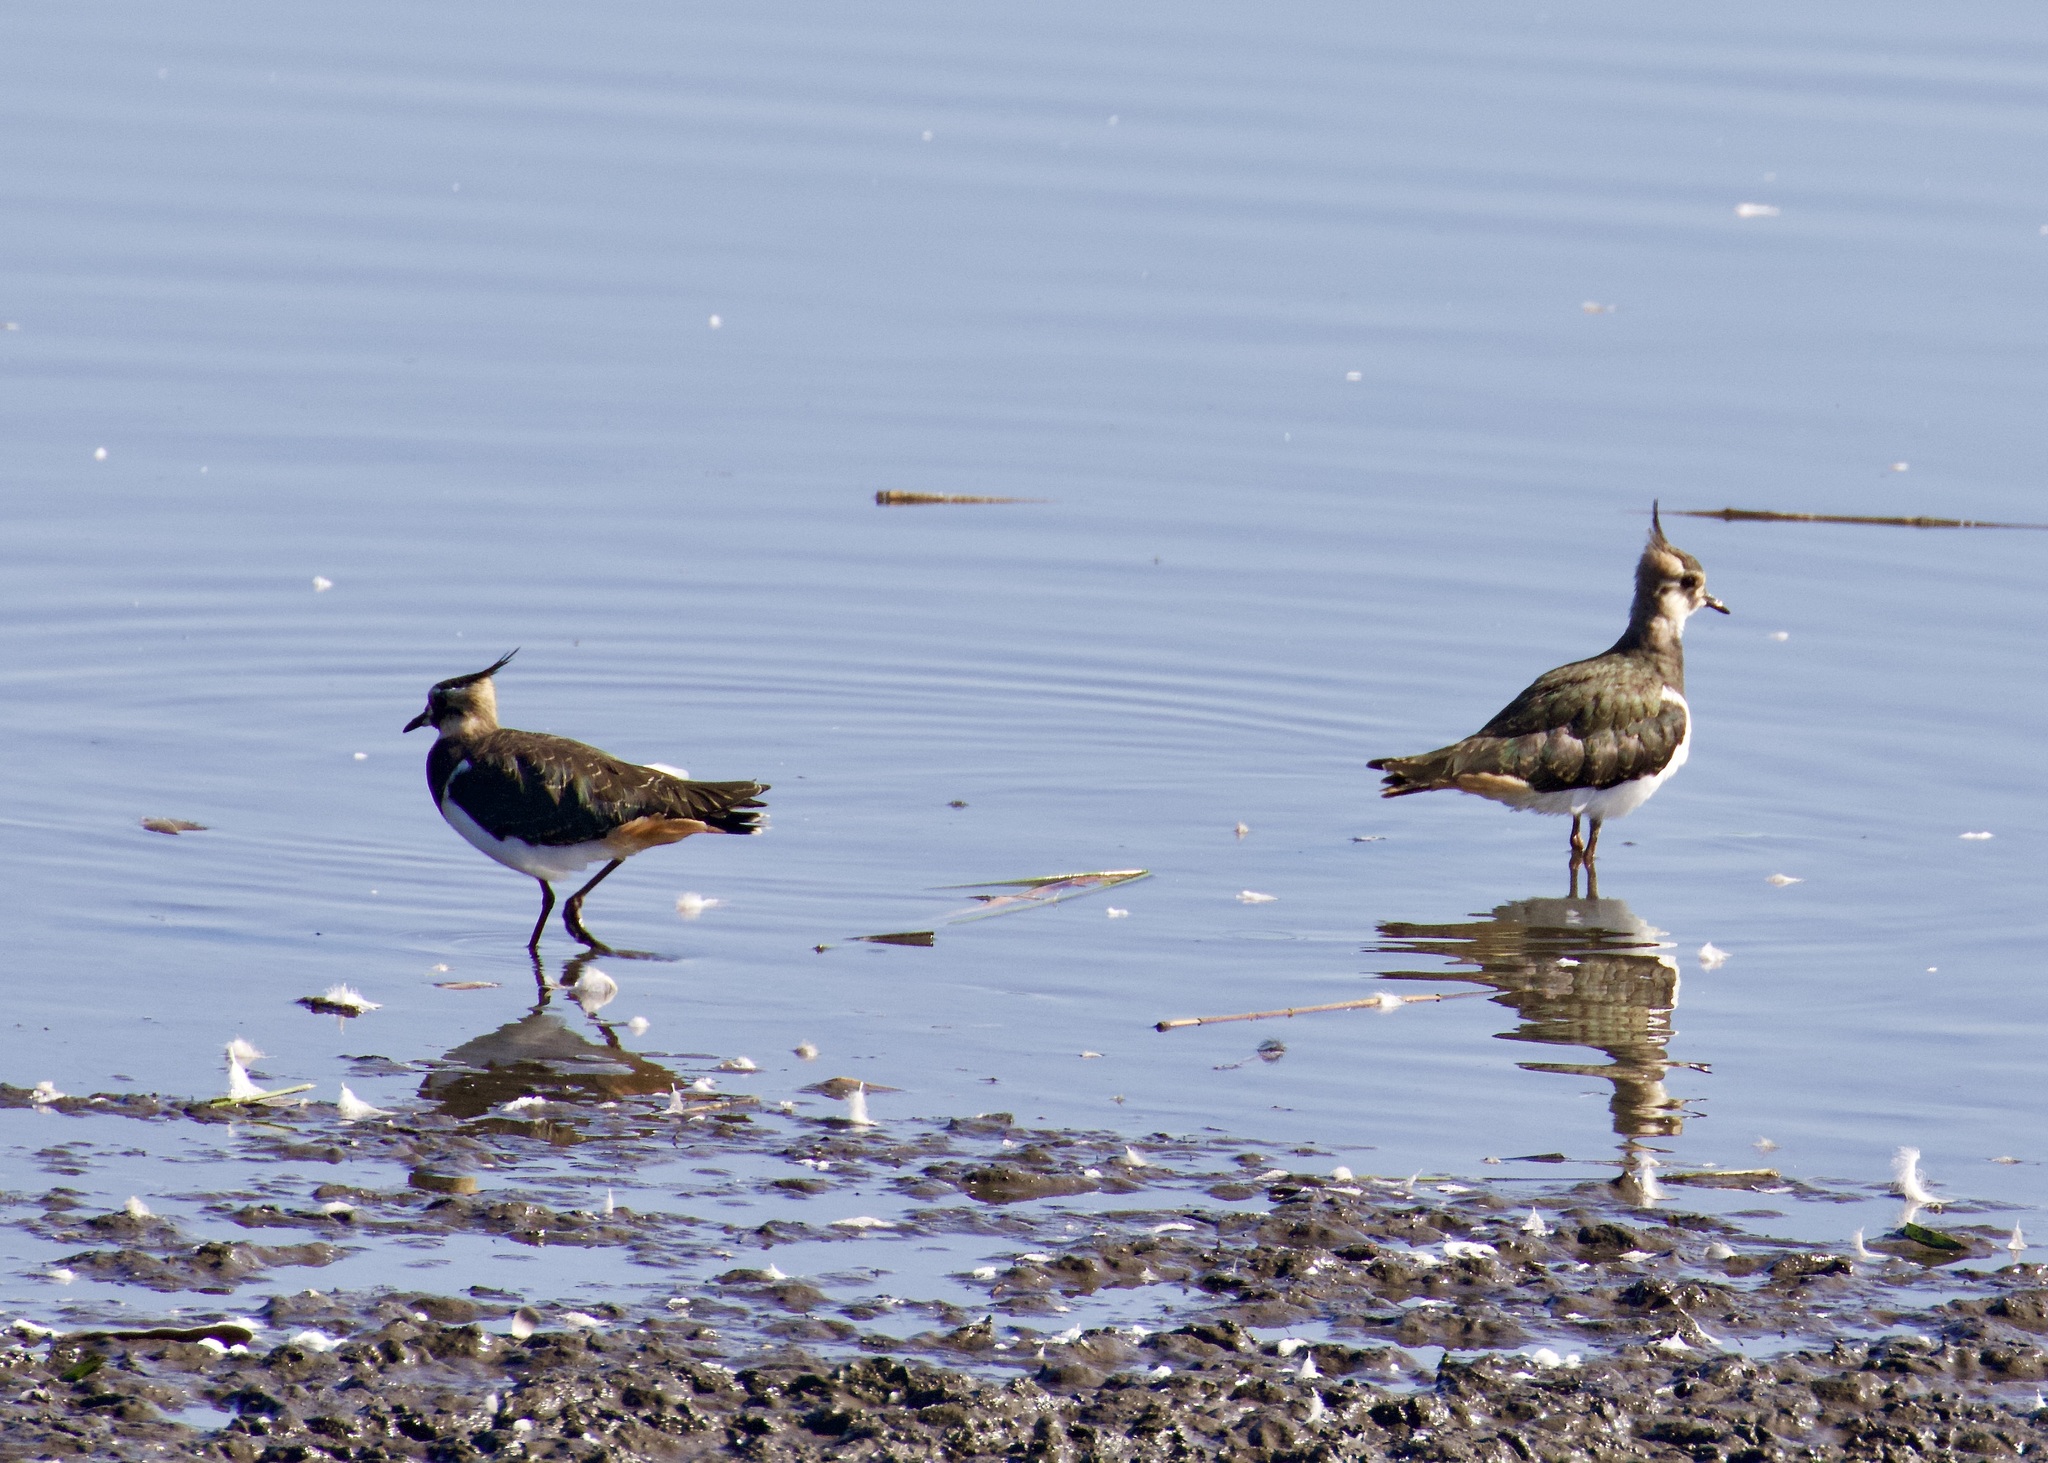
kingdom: Animalia
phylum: Chordata
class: Aves
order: Charadriiformes
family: Charadriidae
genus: Vanellus
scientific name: Vanellus vanellus
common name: Northern lapwing
